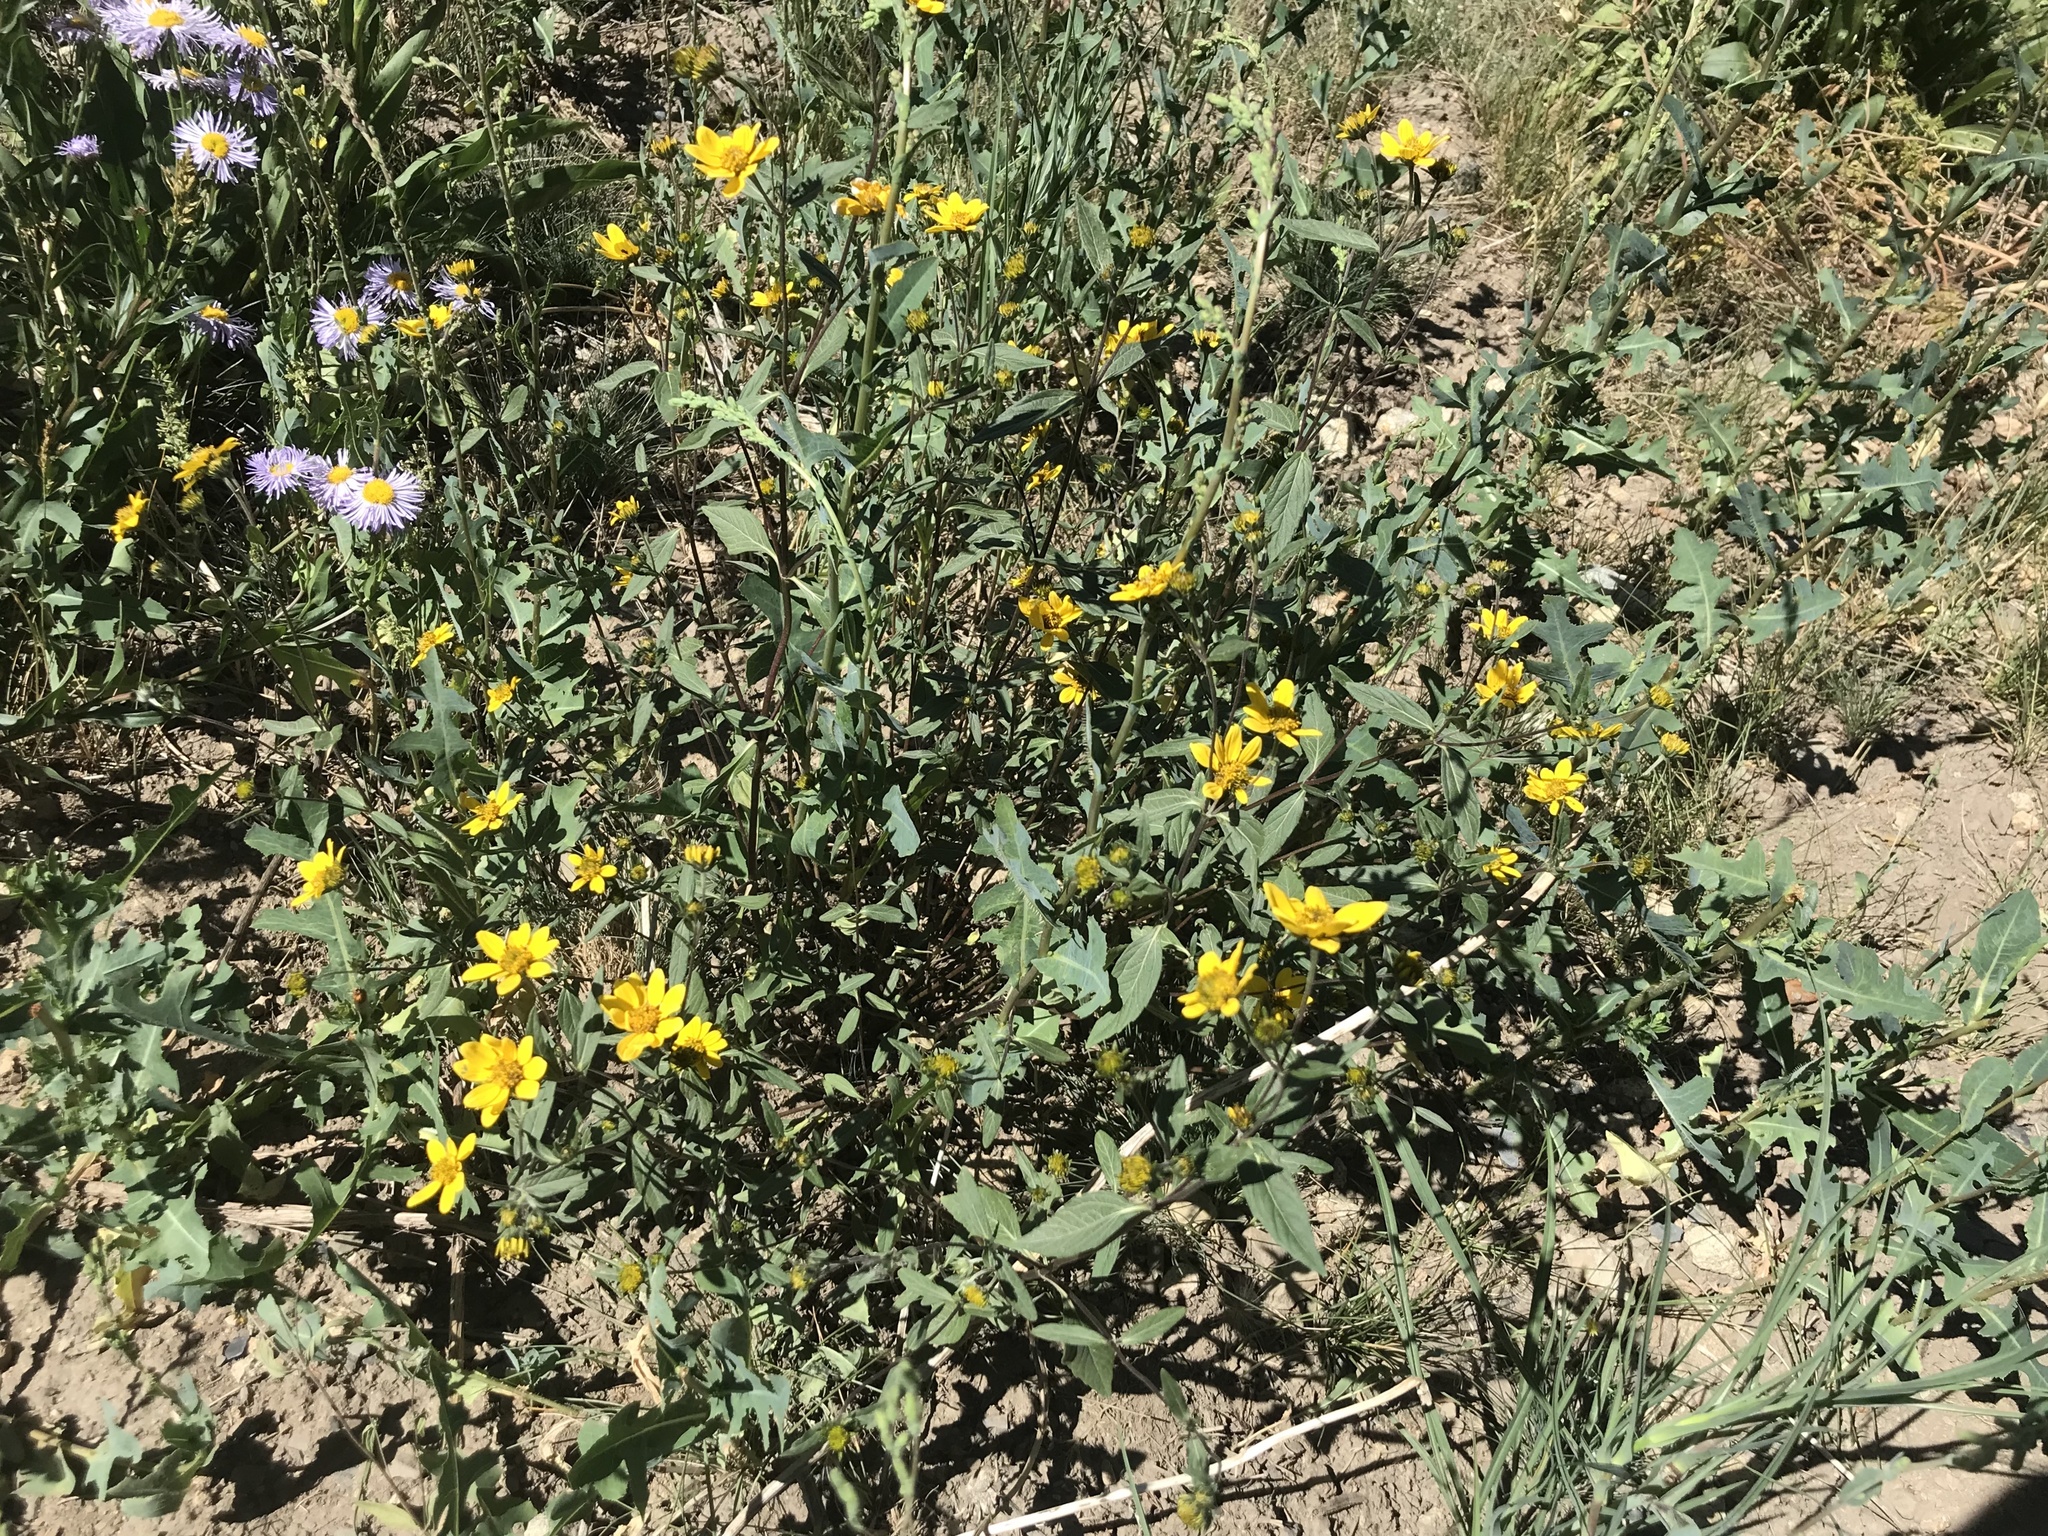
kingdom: Plantae
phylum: Tracheophyta
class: Magnoliopsida
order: Asterales
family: Asteraceae
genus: Heliomeris
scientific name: Heliomeris multiflora
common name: Showy goldeneye
